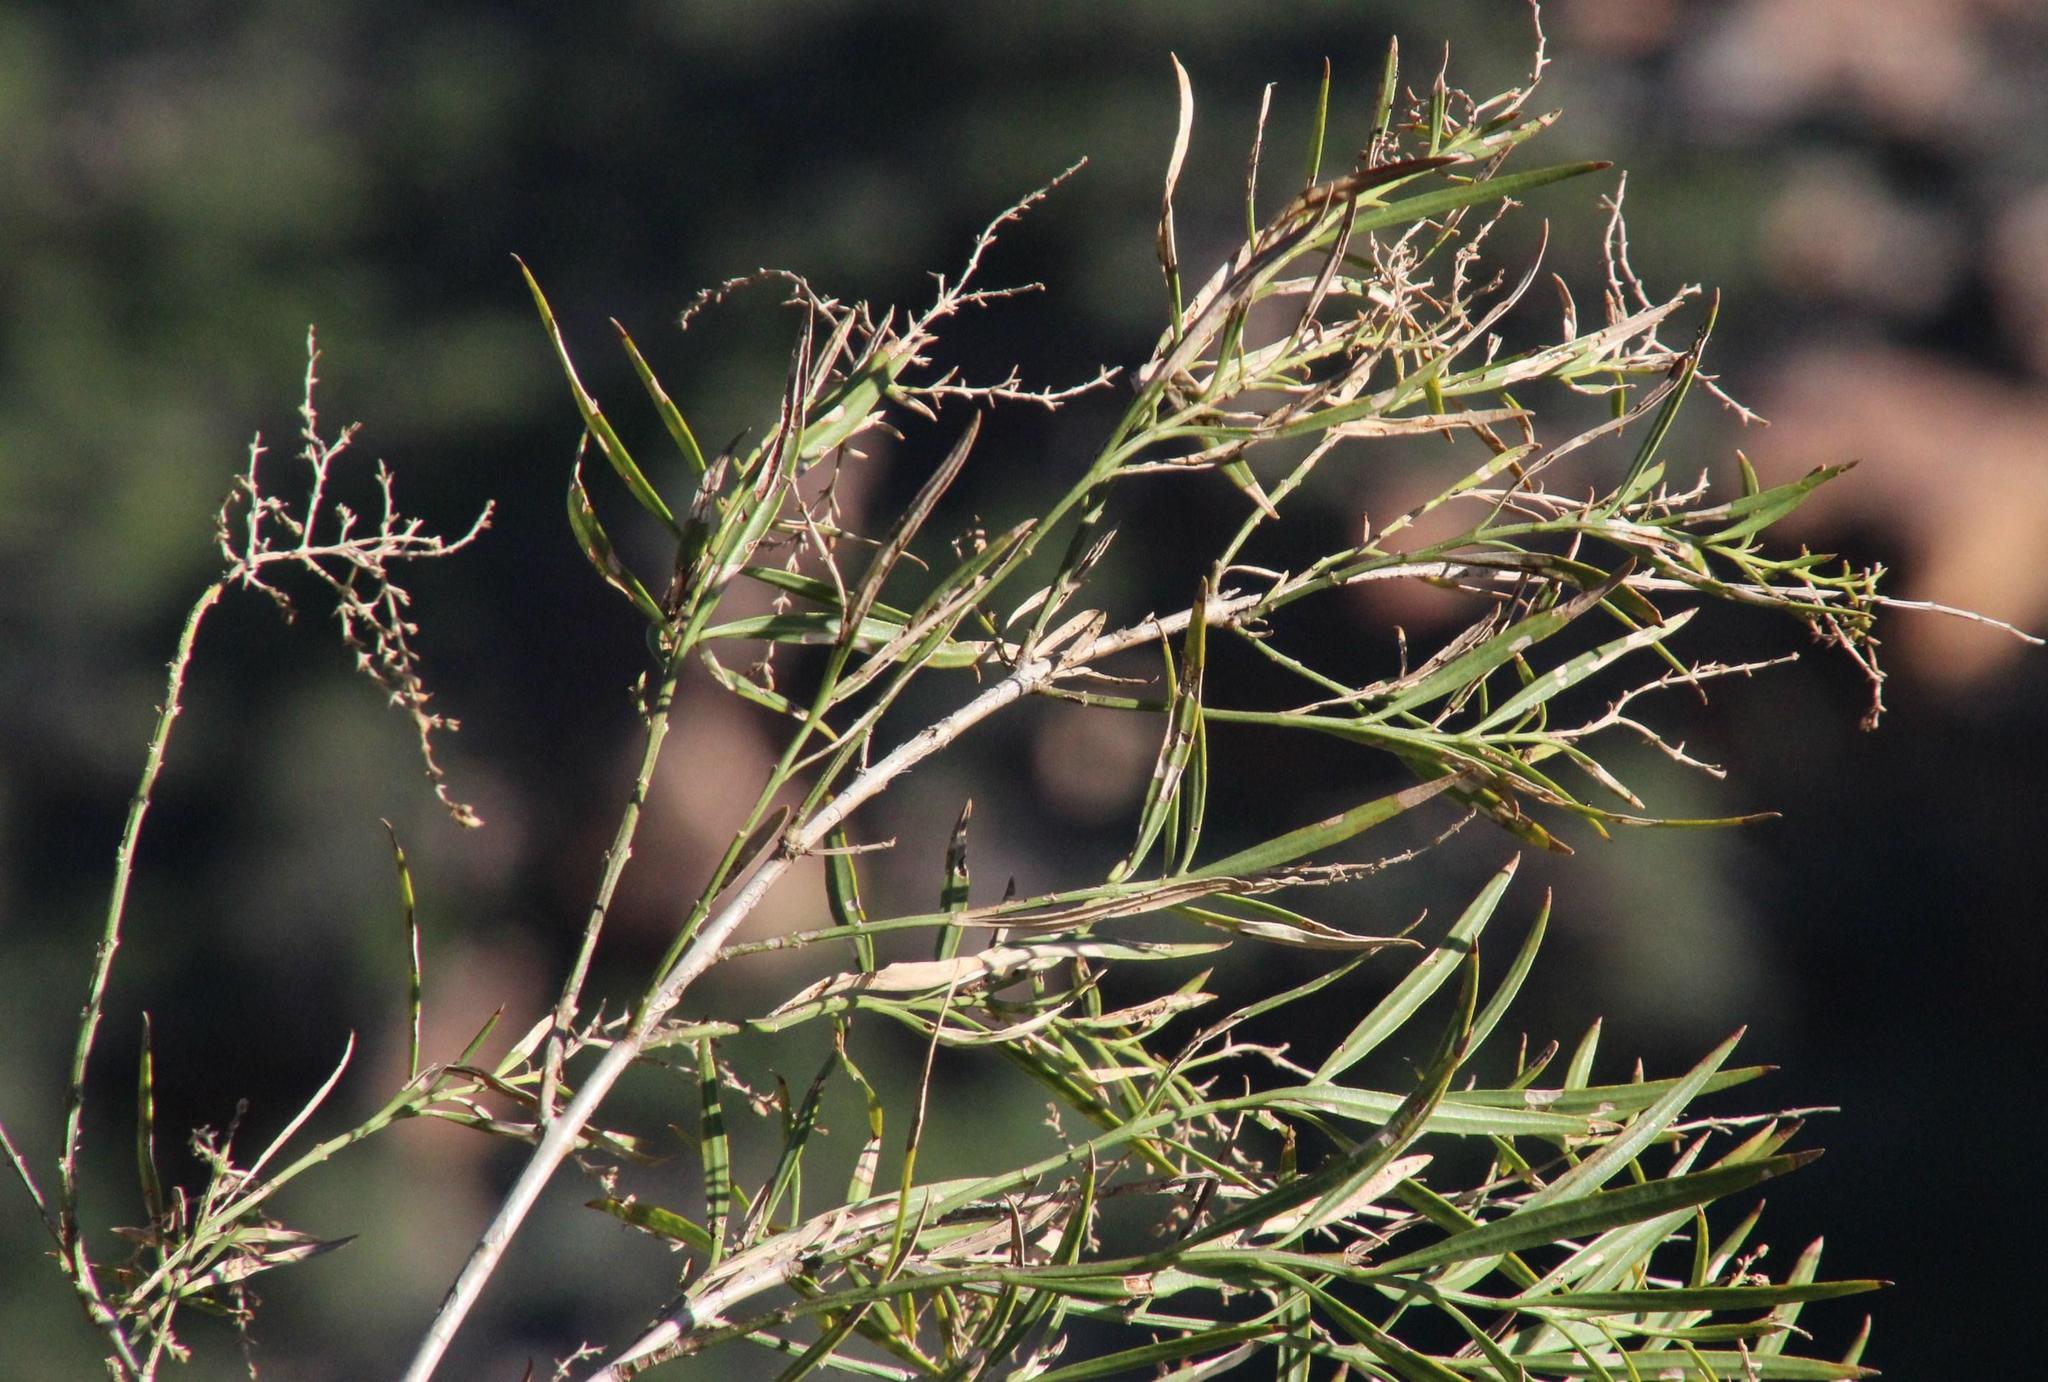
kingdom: Plantae
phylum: Tracheophyta
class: Magnoliopsida
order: Lamiales
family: Scrophulariaceae
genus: Freylinia
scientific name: Freylinia lanceolata
